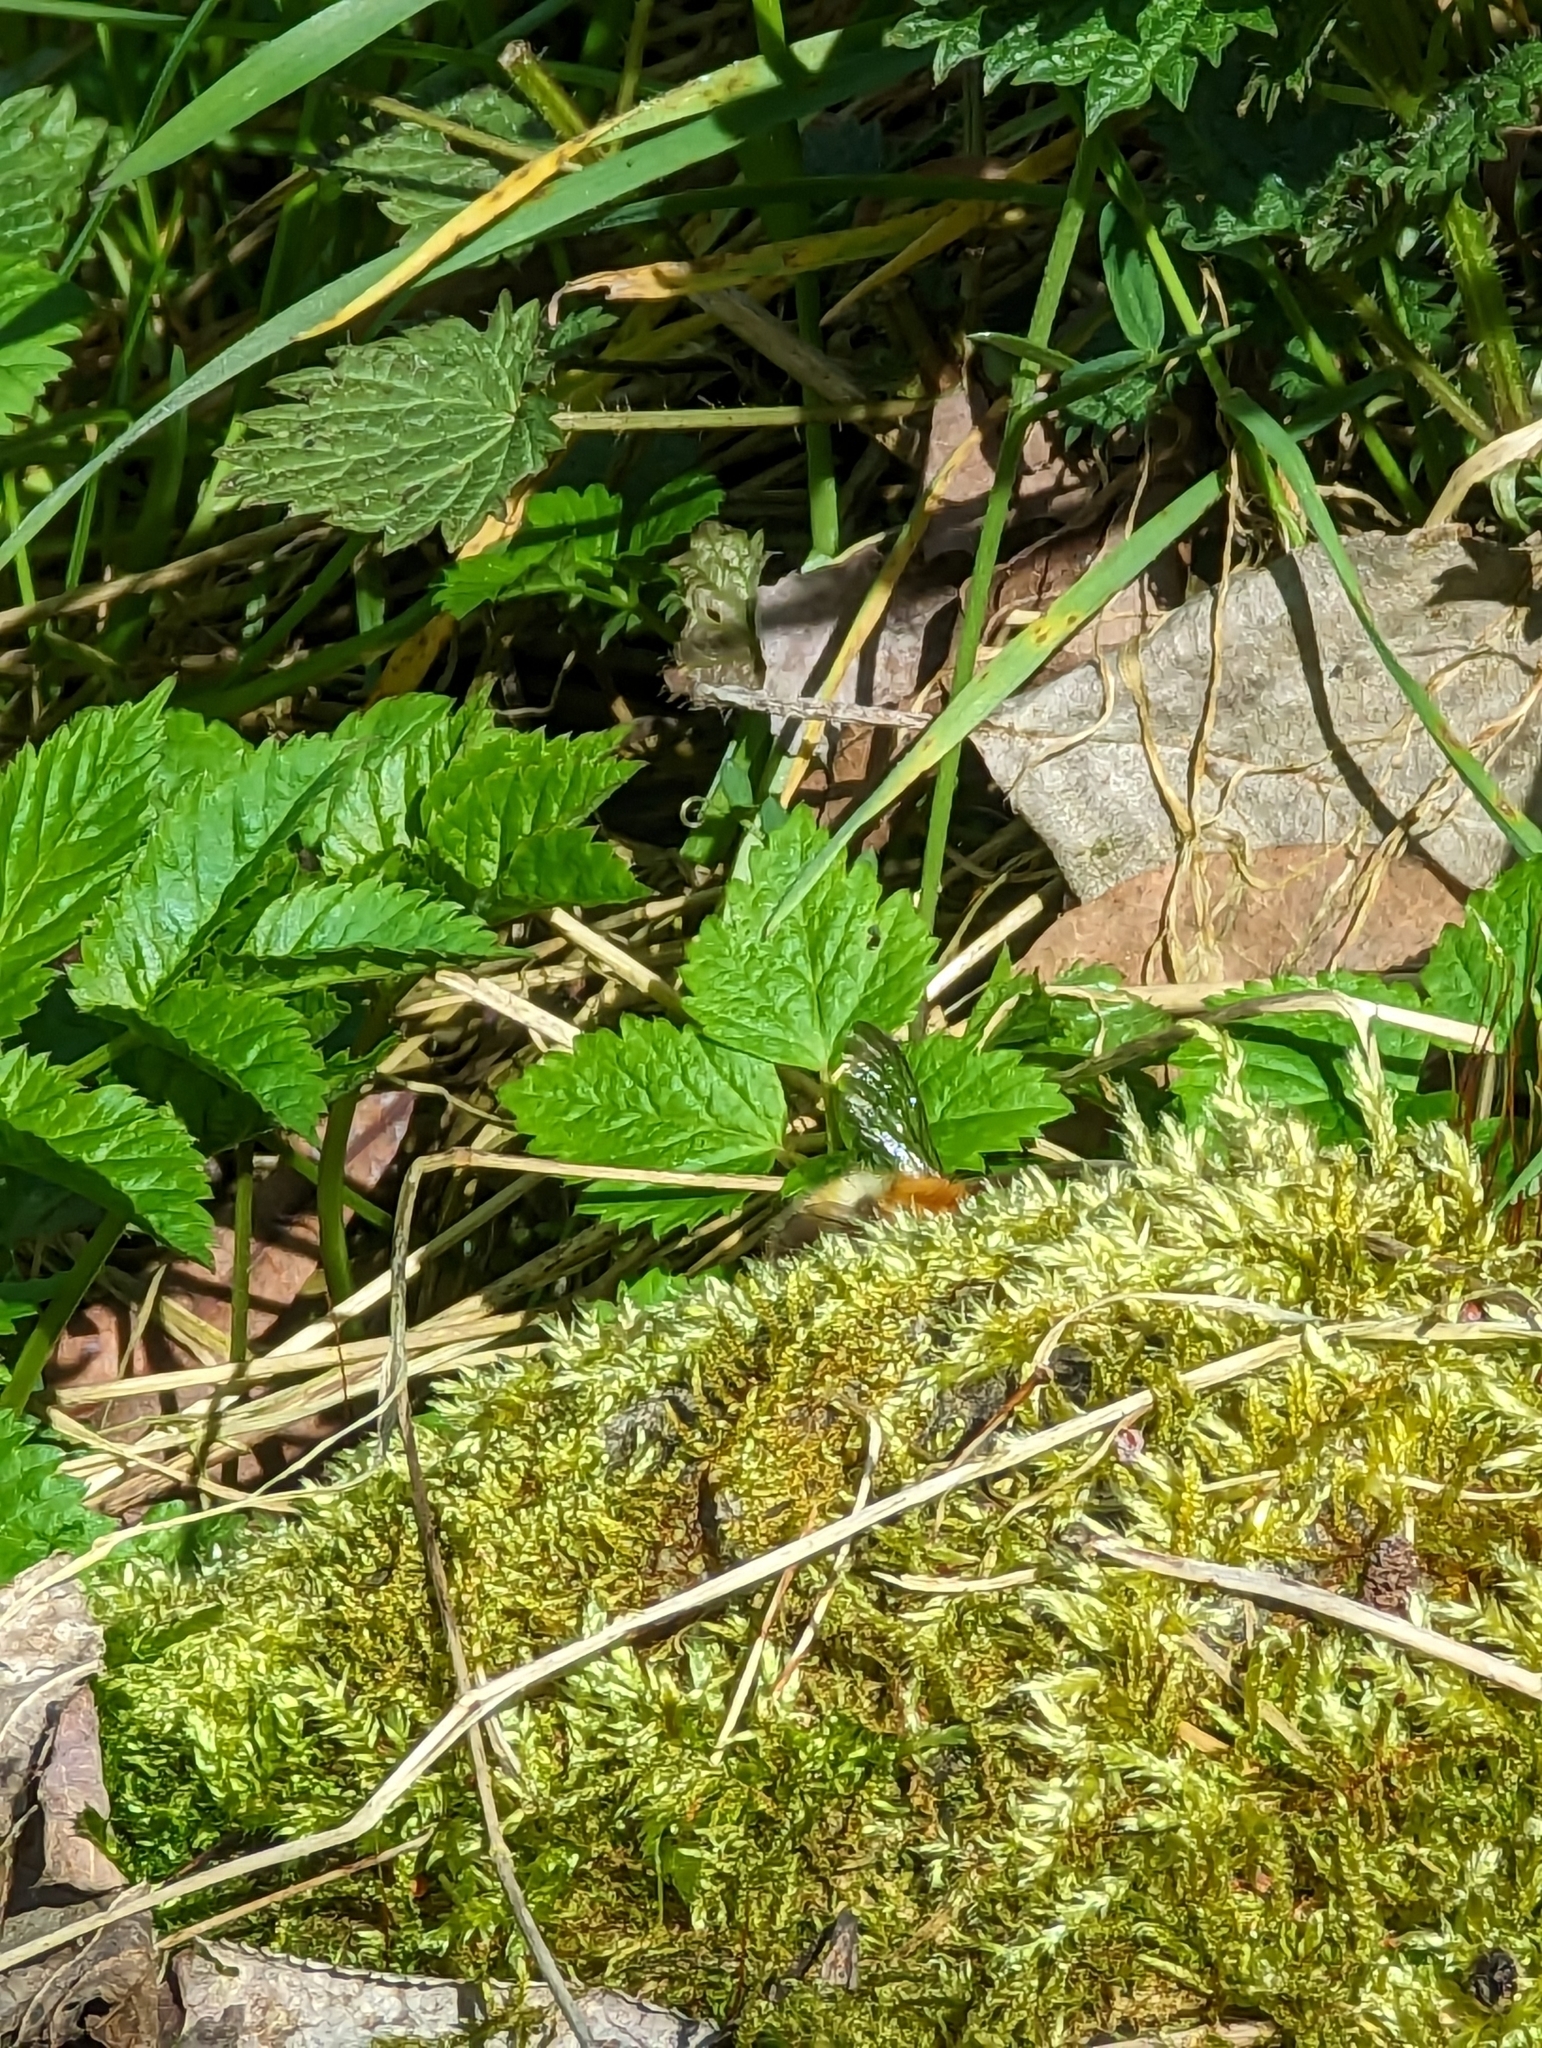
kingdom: Animalia
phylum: Arthropoda
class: Insecta
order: Hymenoptera
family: Apidae
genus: Bombus
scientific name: Bombus pascuorum
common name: Common carder bee
